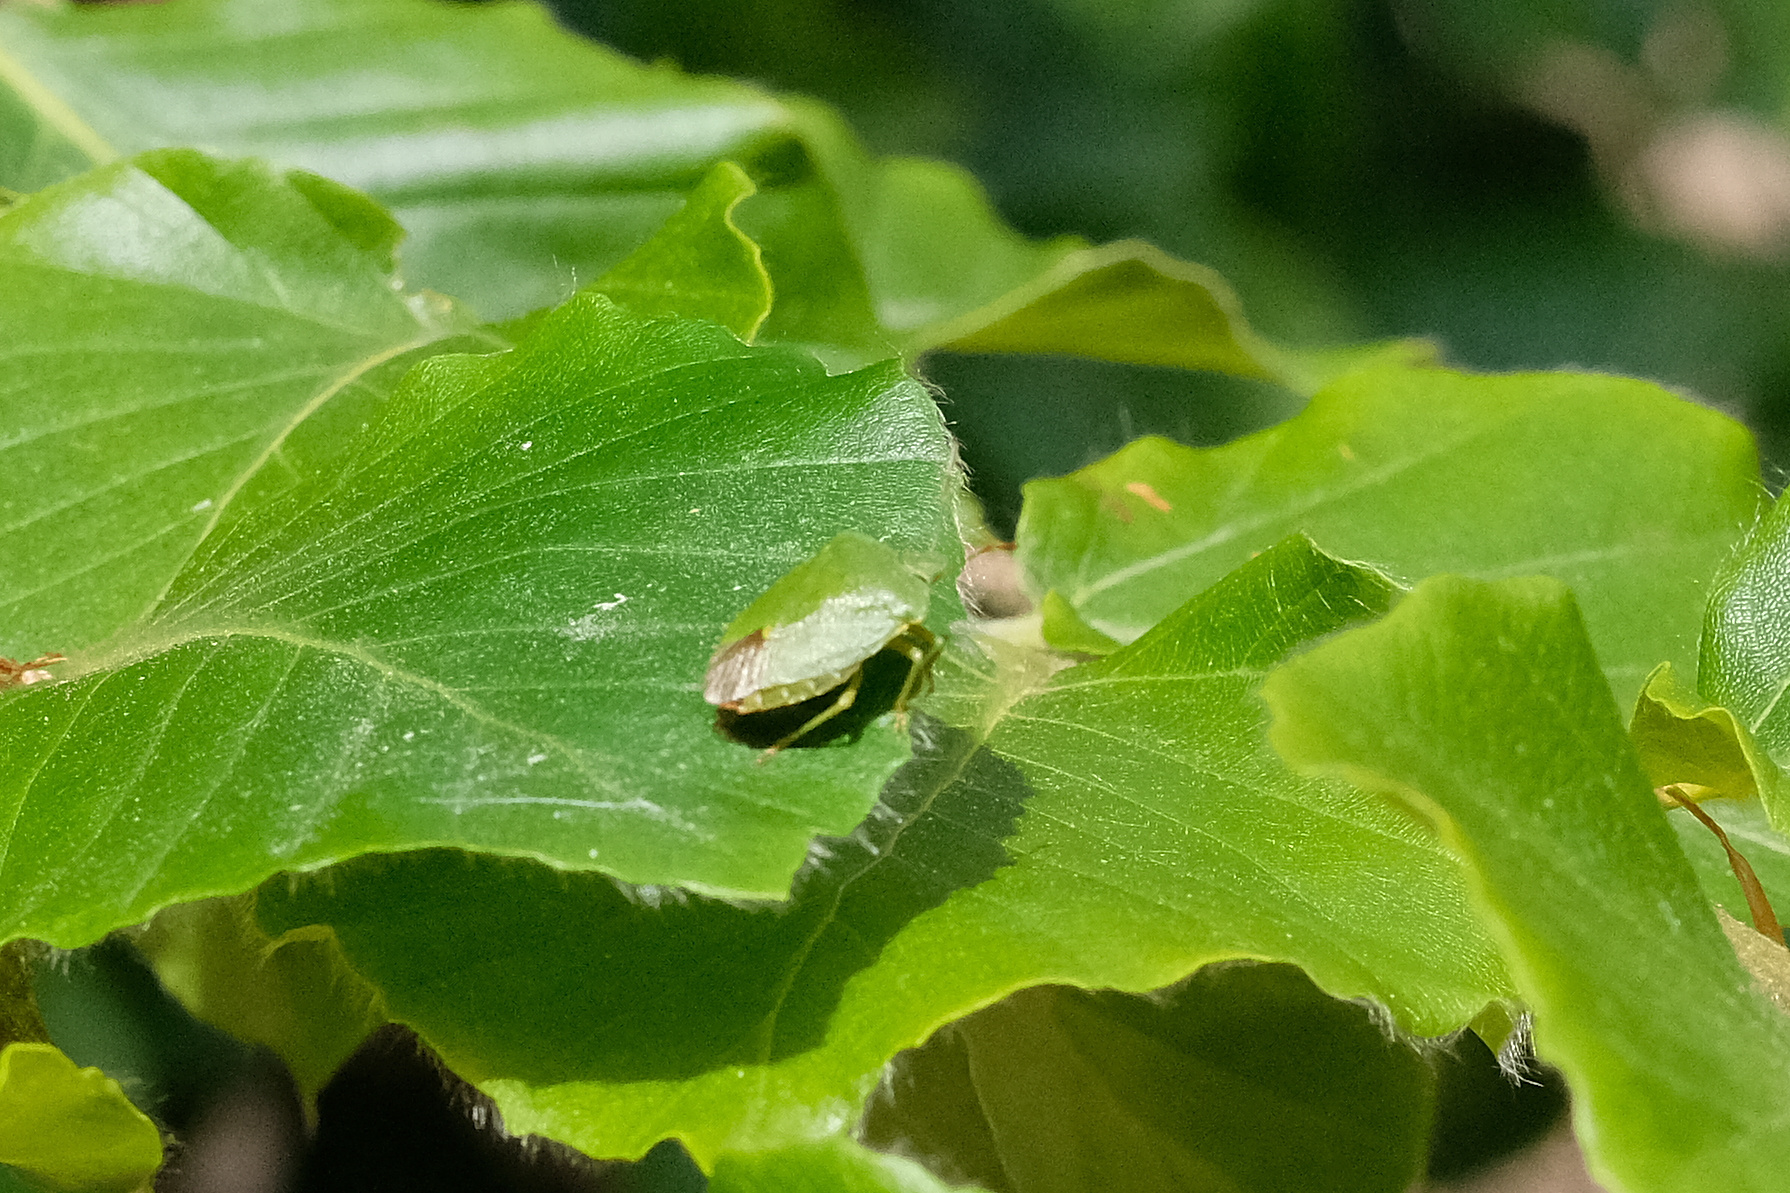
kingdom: Animalia
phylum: Arthropoda
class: Insecta
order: Hemiptera
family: Pentatomidae
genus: Palomena
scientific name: Palomena prasina
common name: Green shieldbug
